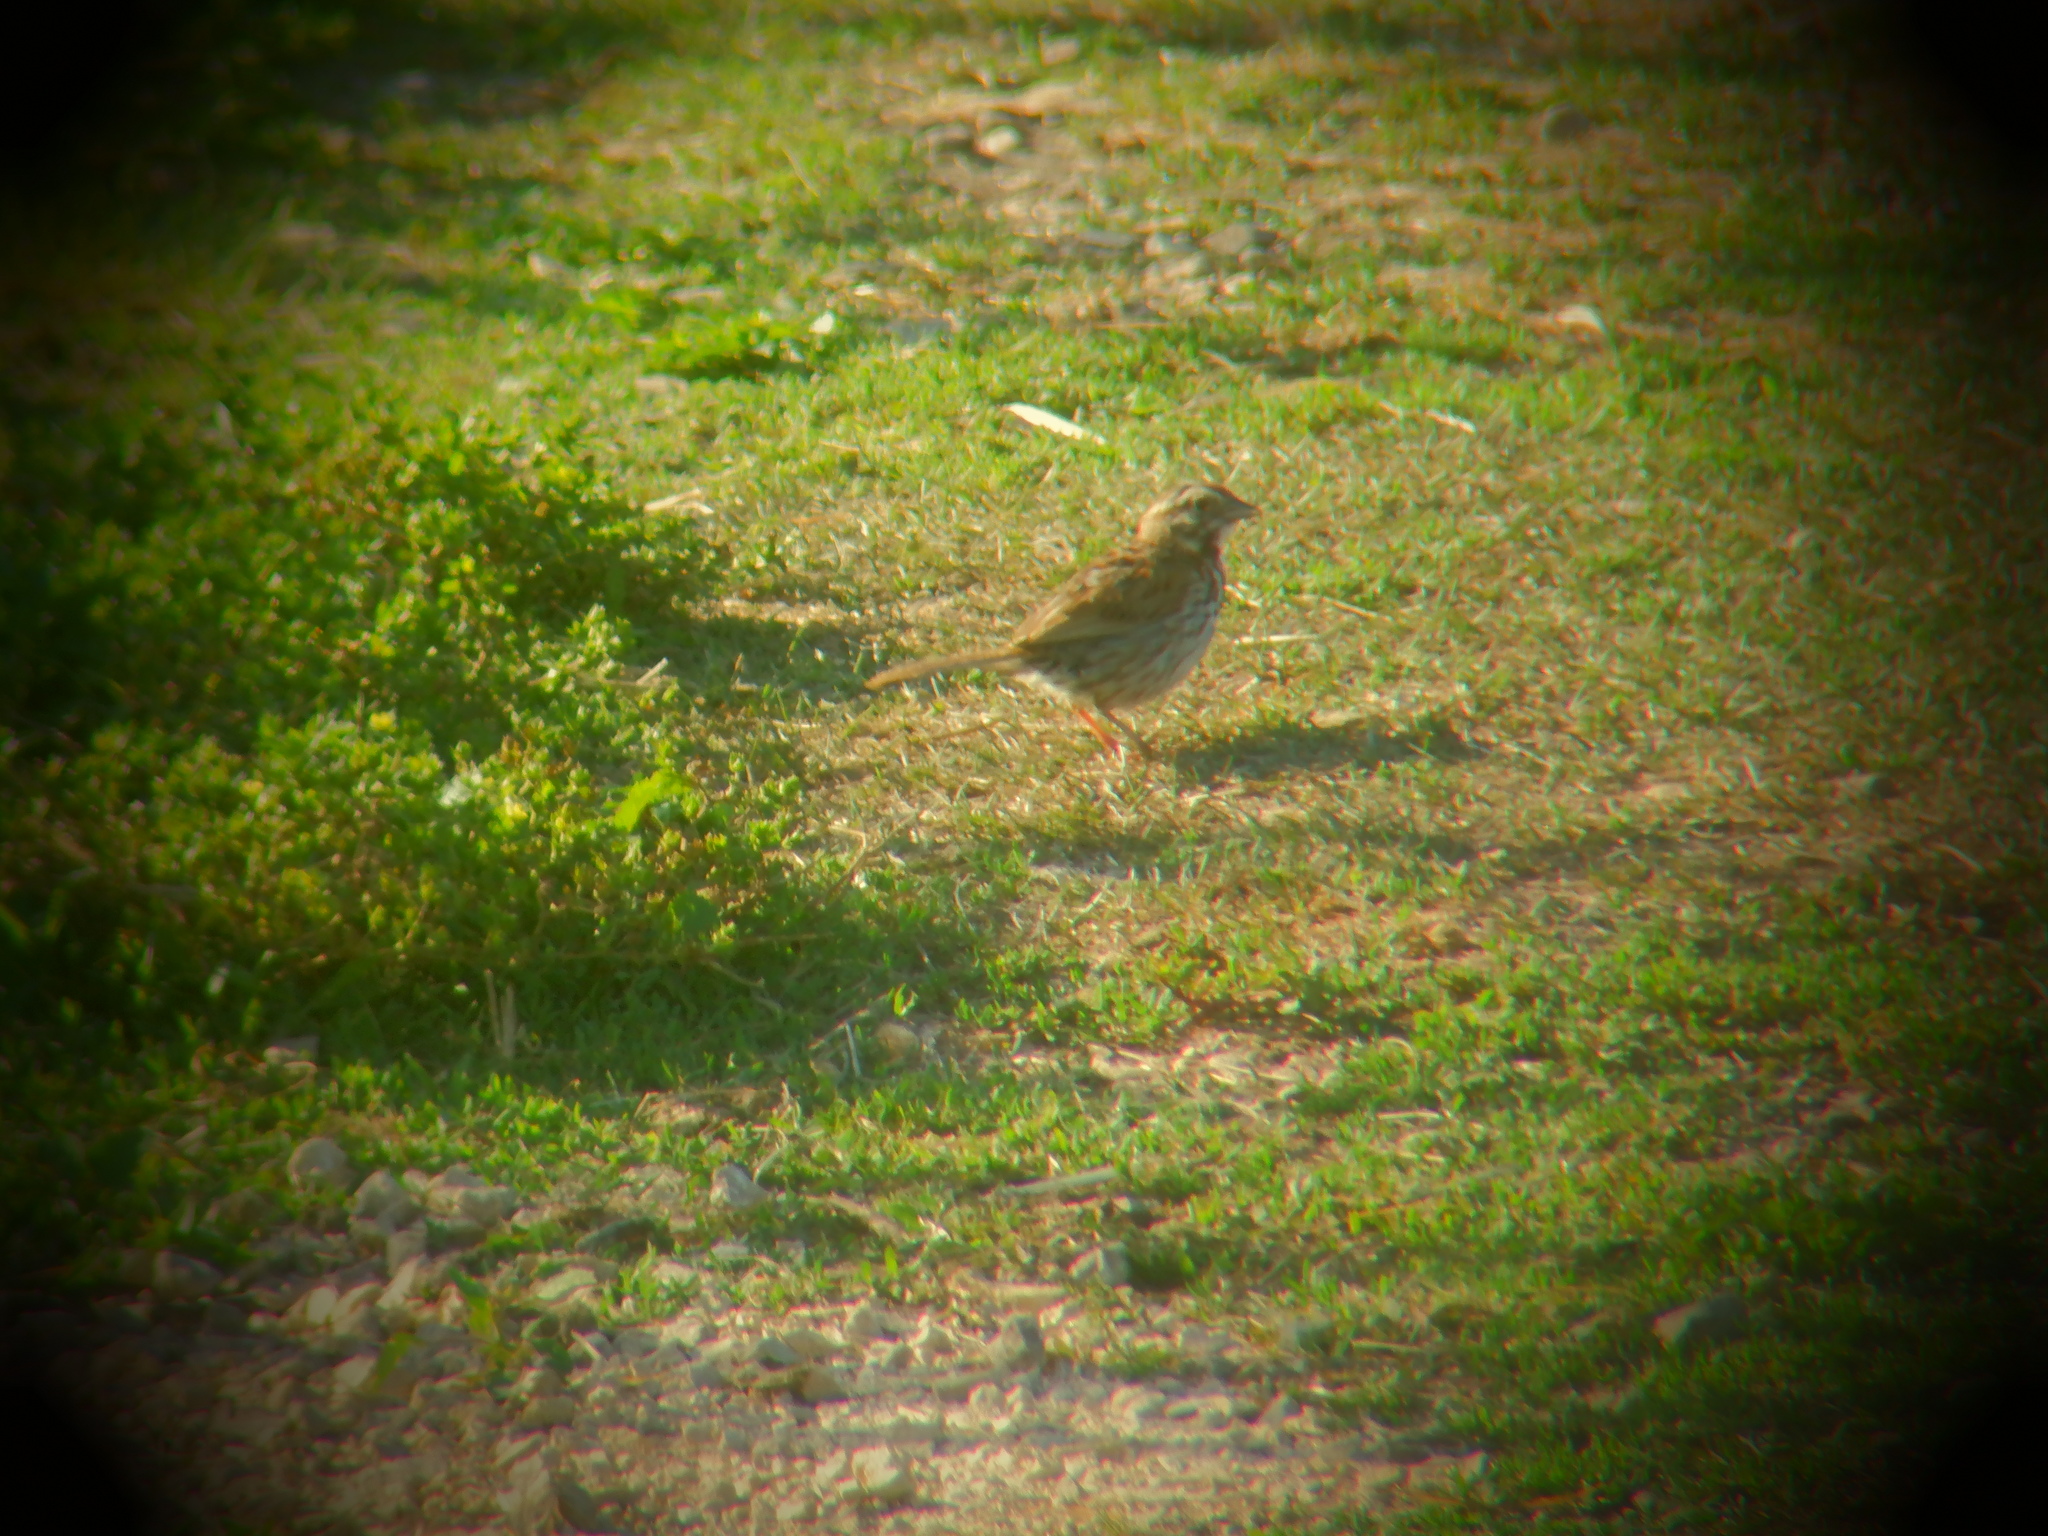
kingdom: Animalia
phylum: Chordata
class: Aves
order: Passeriformes
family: Passerellidae
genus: Melospiza
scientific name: Melospiza melodia
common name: Song sparrow
